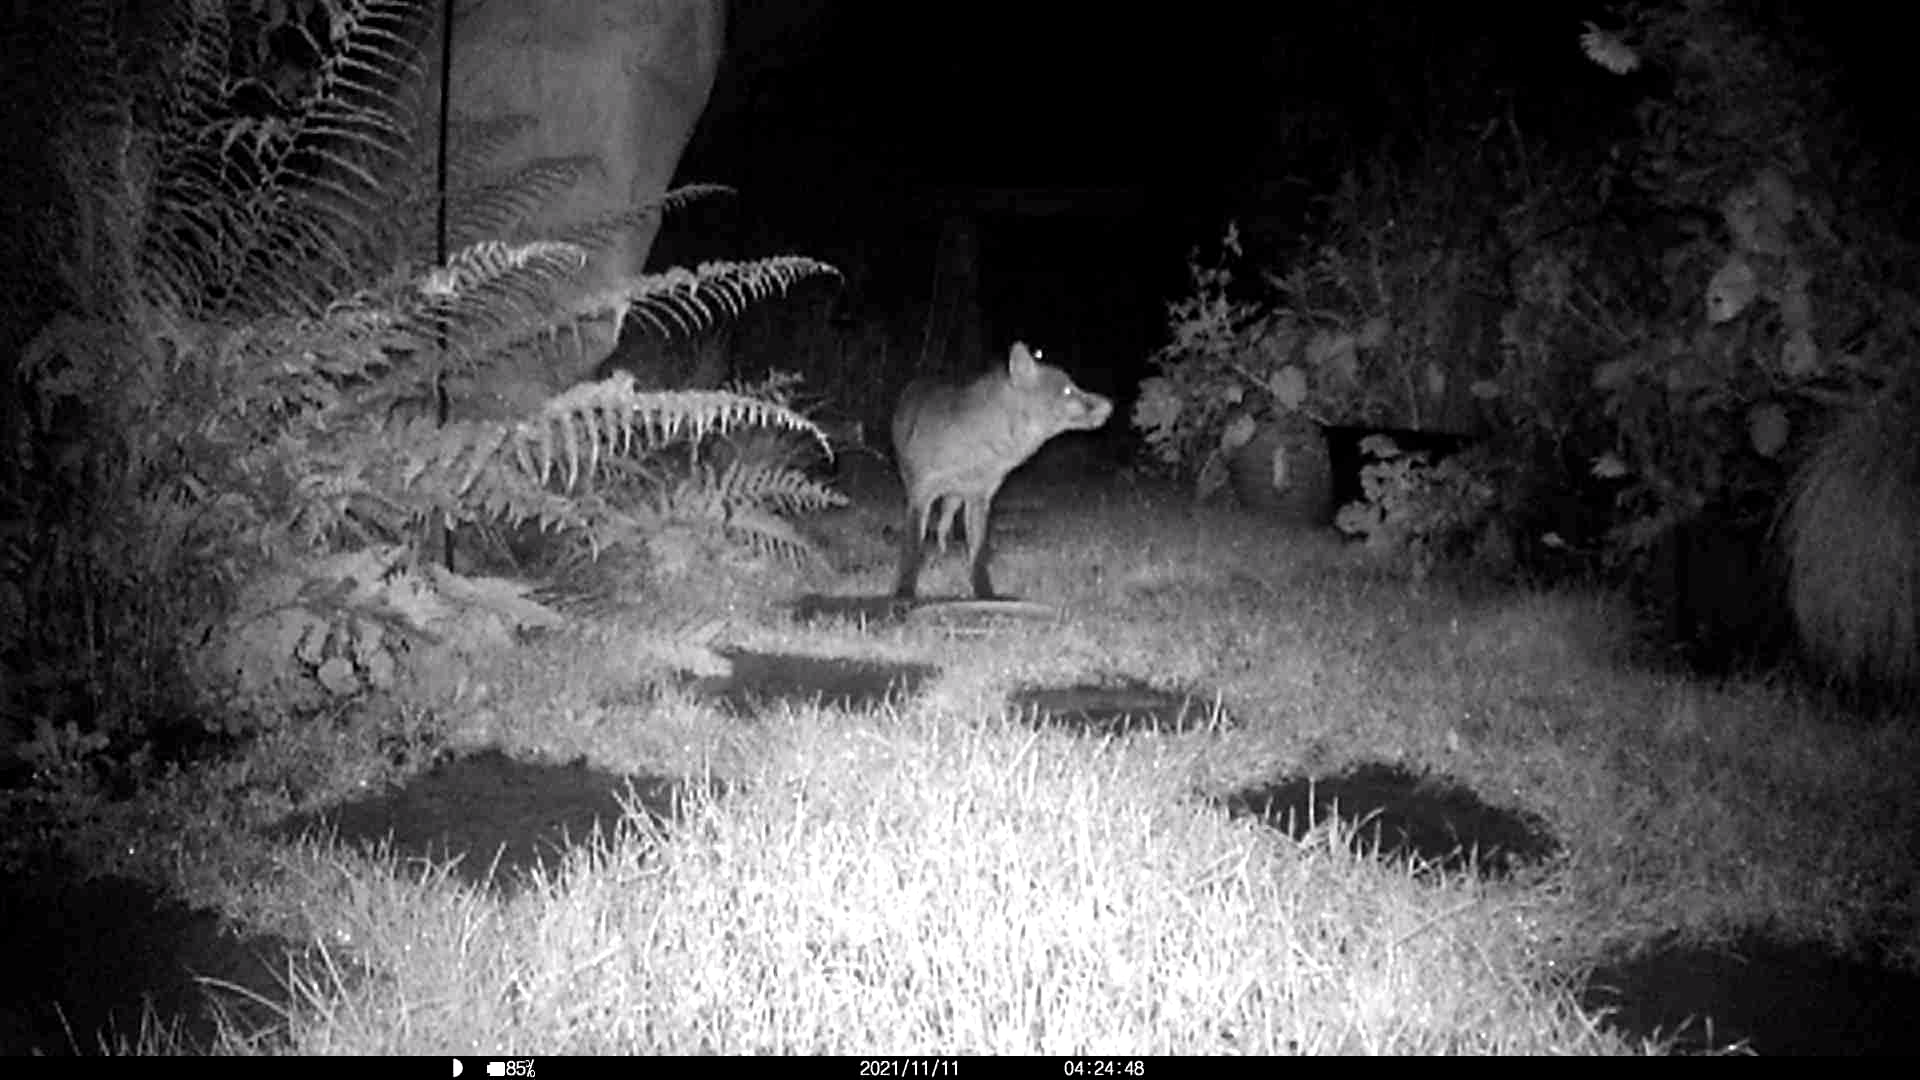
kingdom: Animalia
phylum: Chordata
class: Mammalia
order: Carnivora
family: Canidae
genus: Vulpes
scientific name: Vulpes vulpes
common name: Red fox
